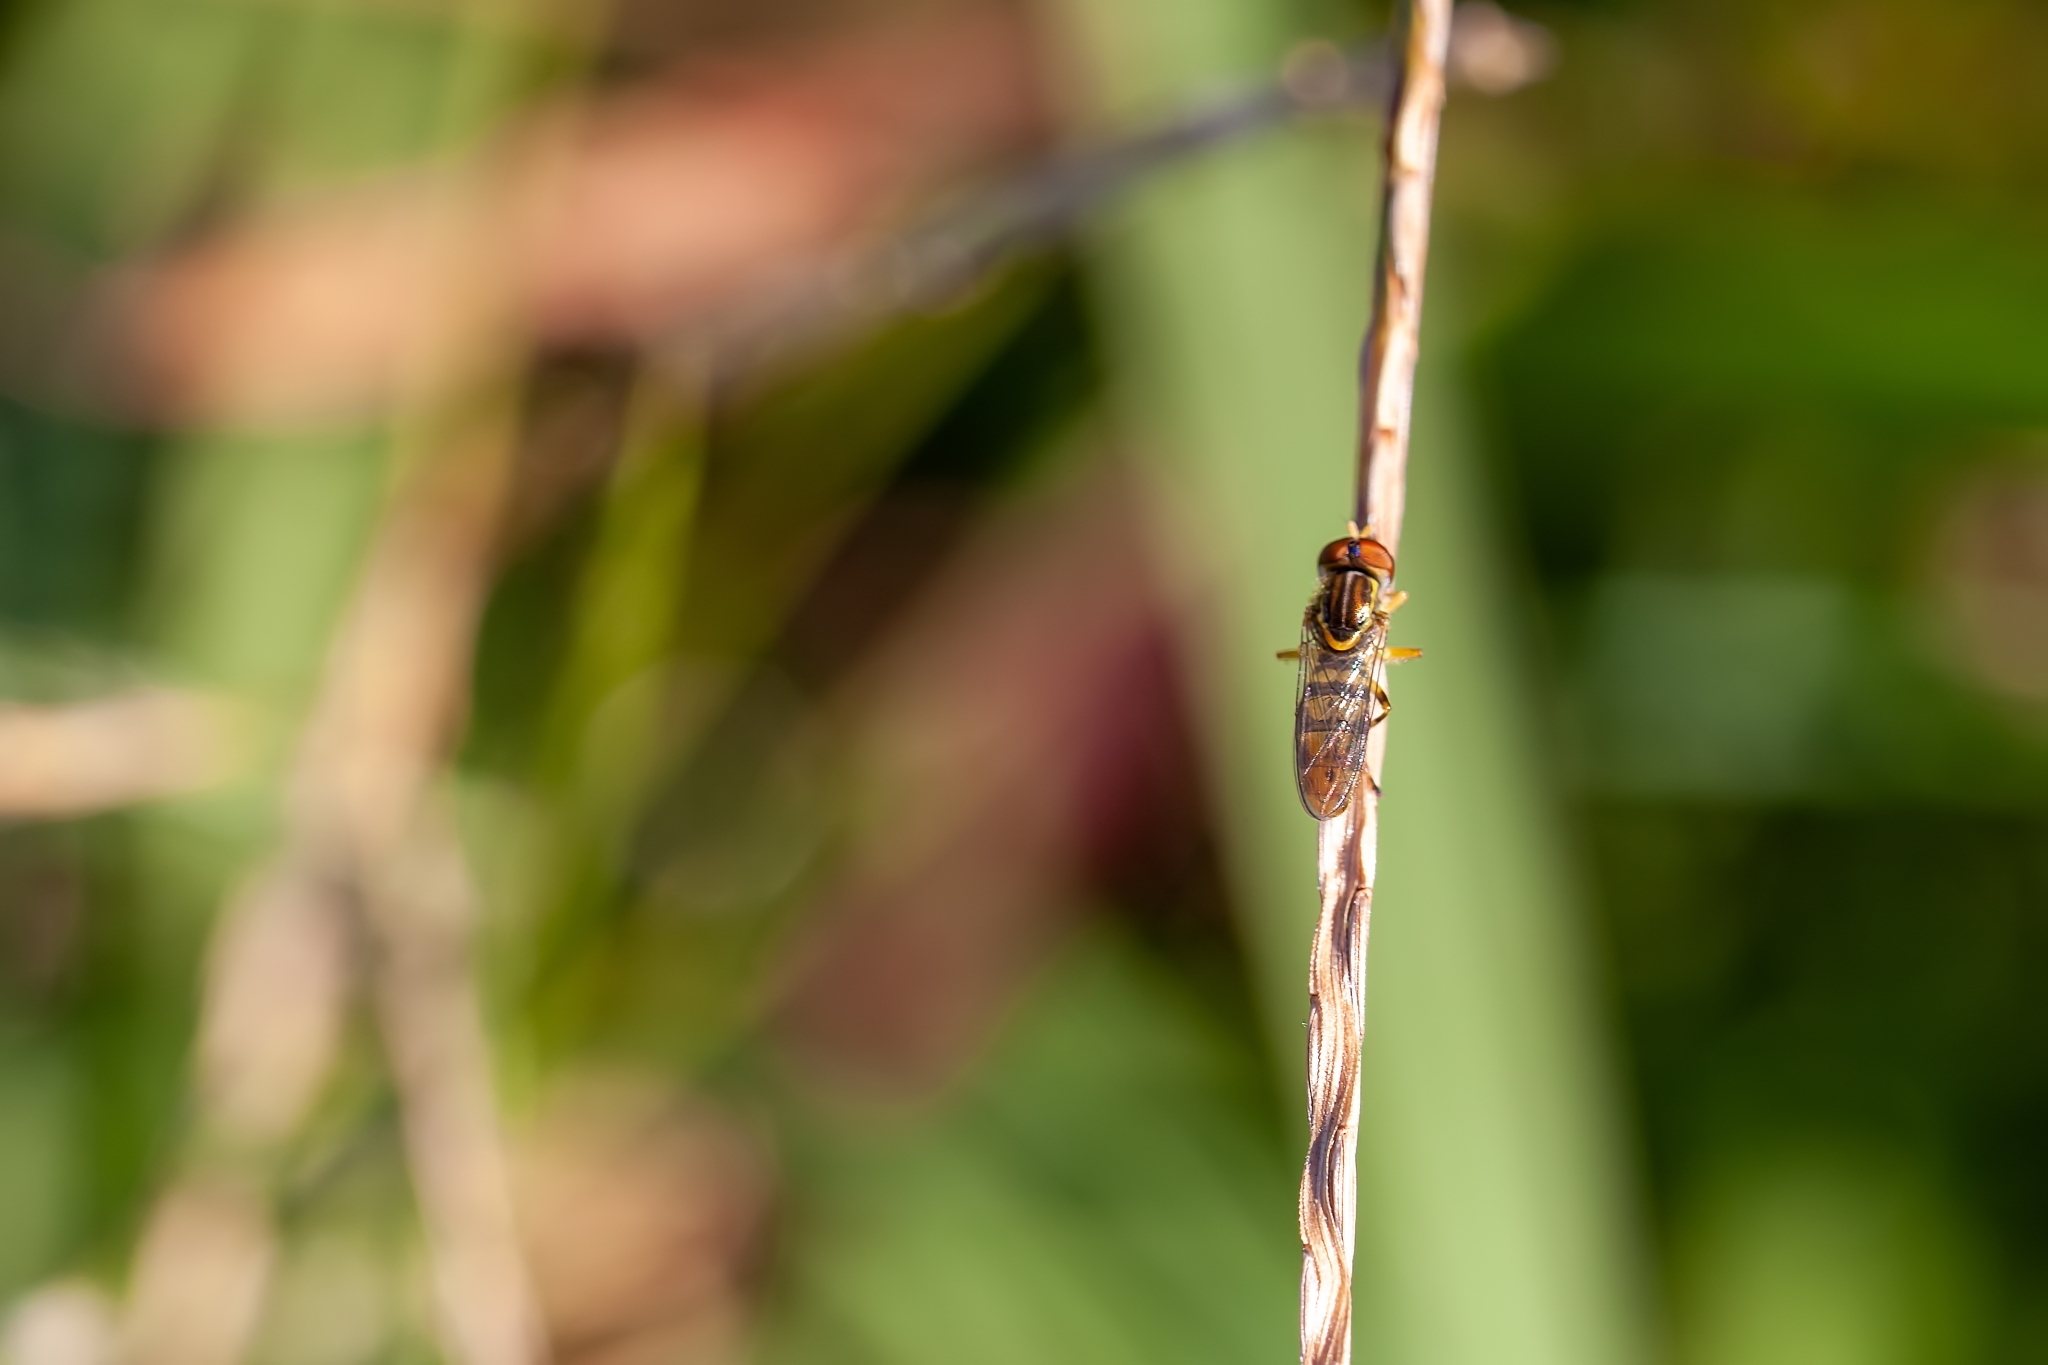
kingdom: Animalia
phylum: Arthropoda
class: Insecta
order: Diptera
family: Syrphidae
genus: Toxomerus
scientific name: Toxomerus floralis
